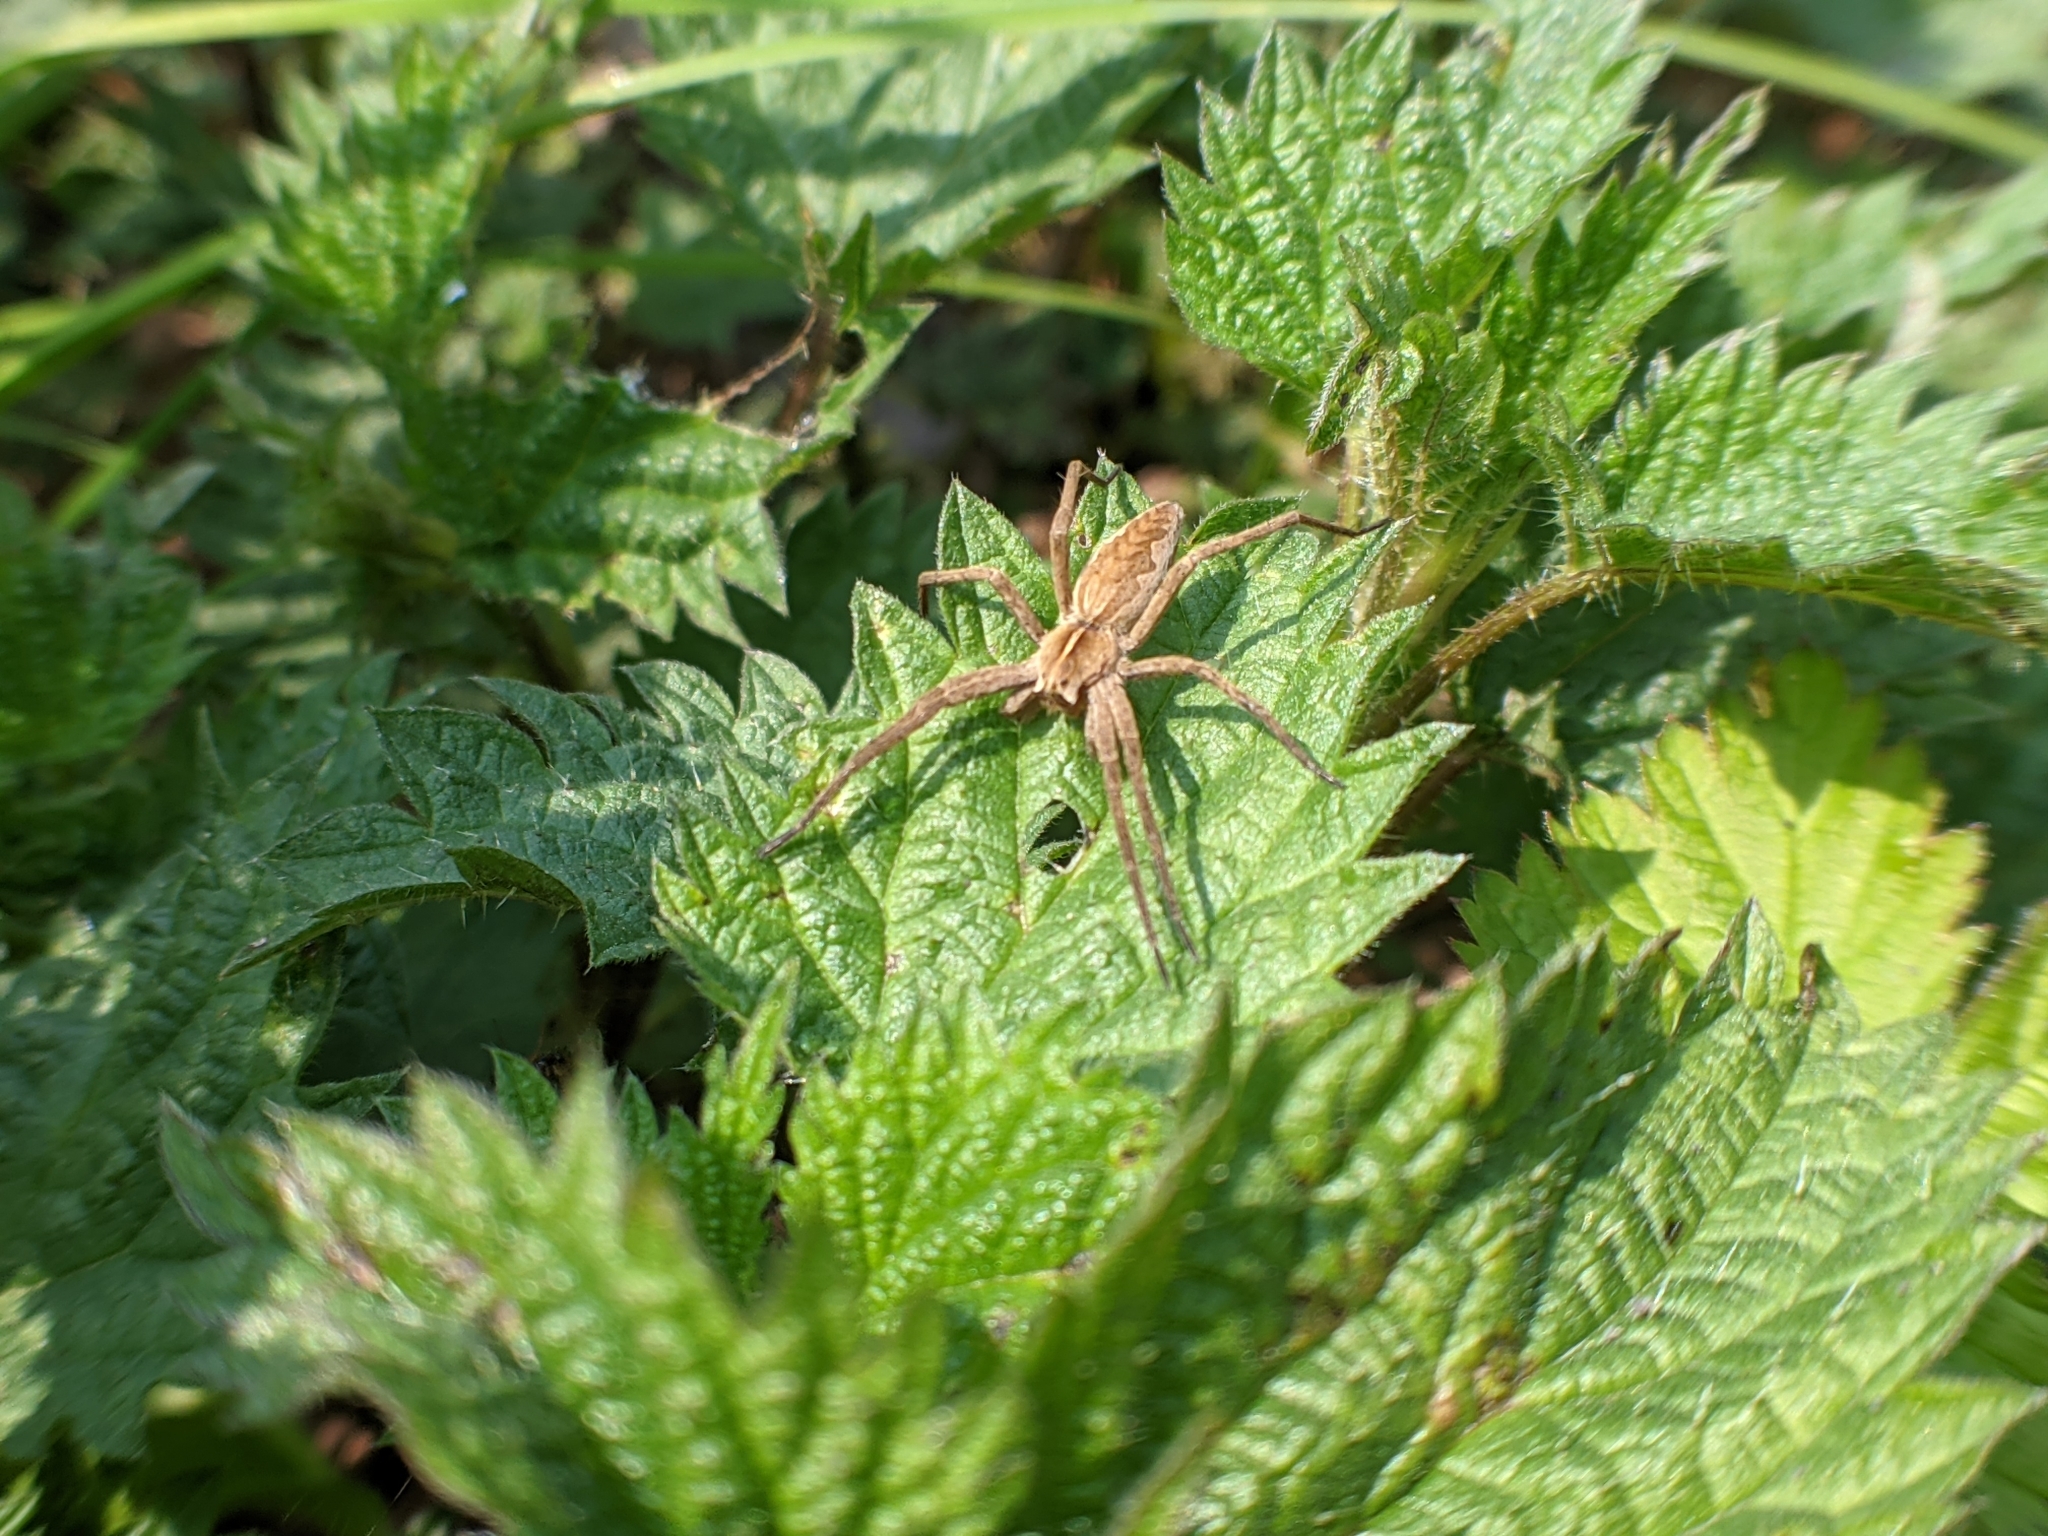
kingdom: Animalia
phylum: Arthropoda
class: Arachnida
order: Araneae
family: Pisauridae
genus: Pisaura
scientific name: Pisaura mirabilis
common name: Tent spider
